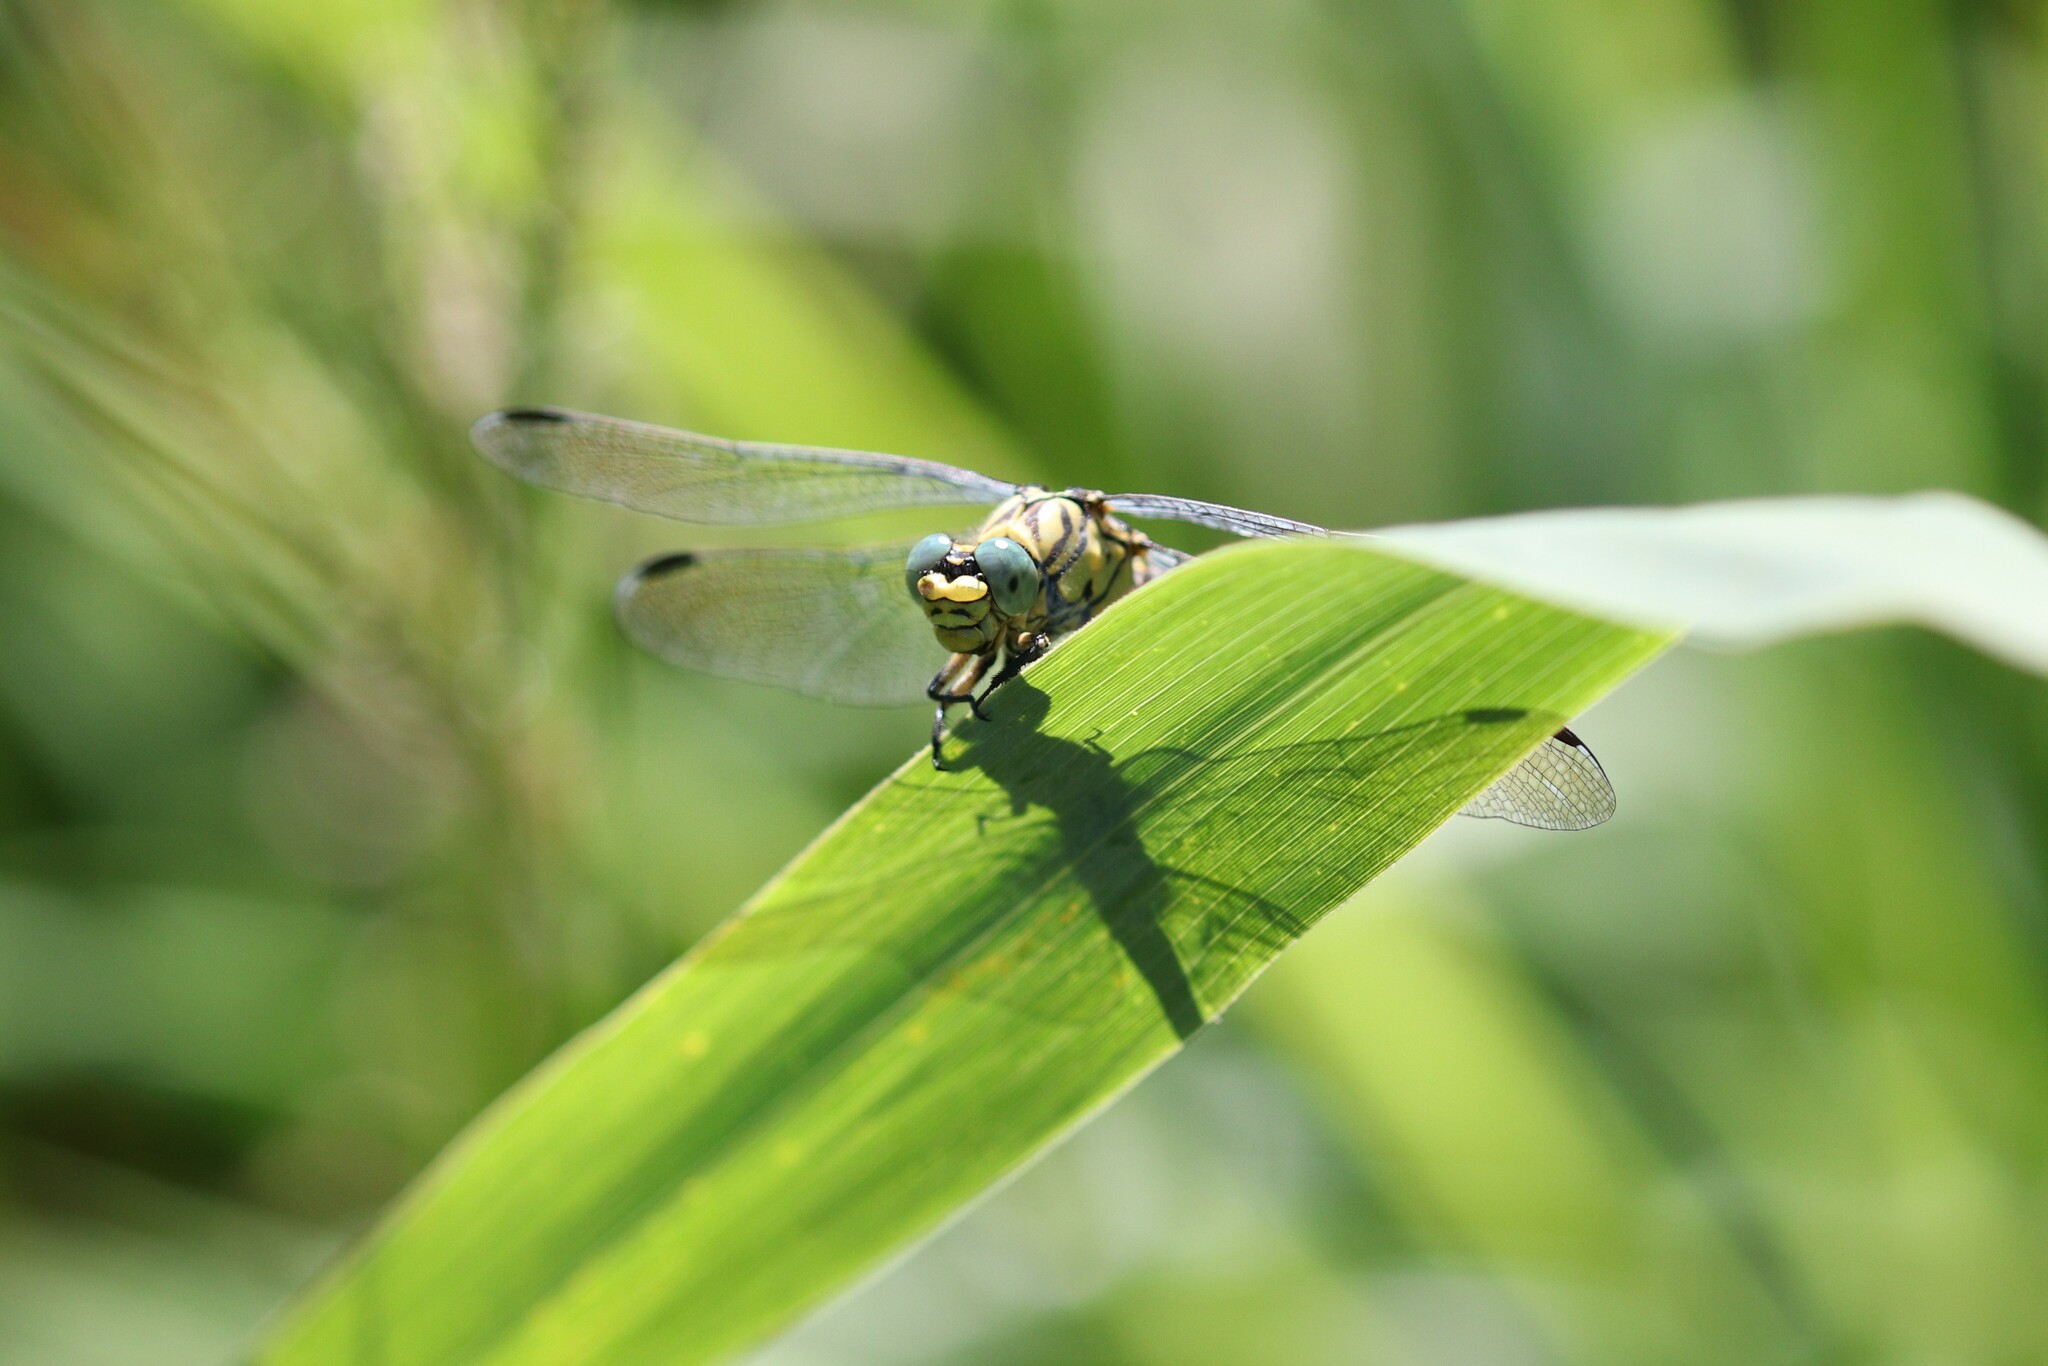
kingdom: Animalia
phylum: Arthropoda
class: Insecta
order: Odonata
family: Gomphidae
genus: Onychogomphus
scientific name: Onychogomphus forcipatus
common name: Small pincertail
